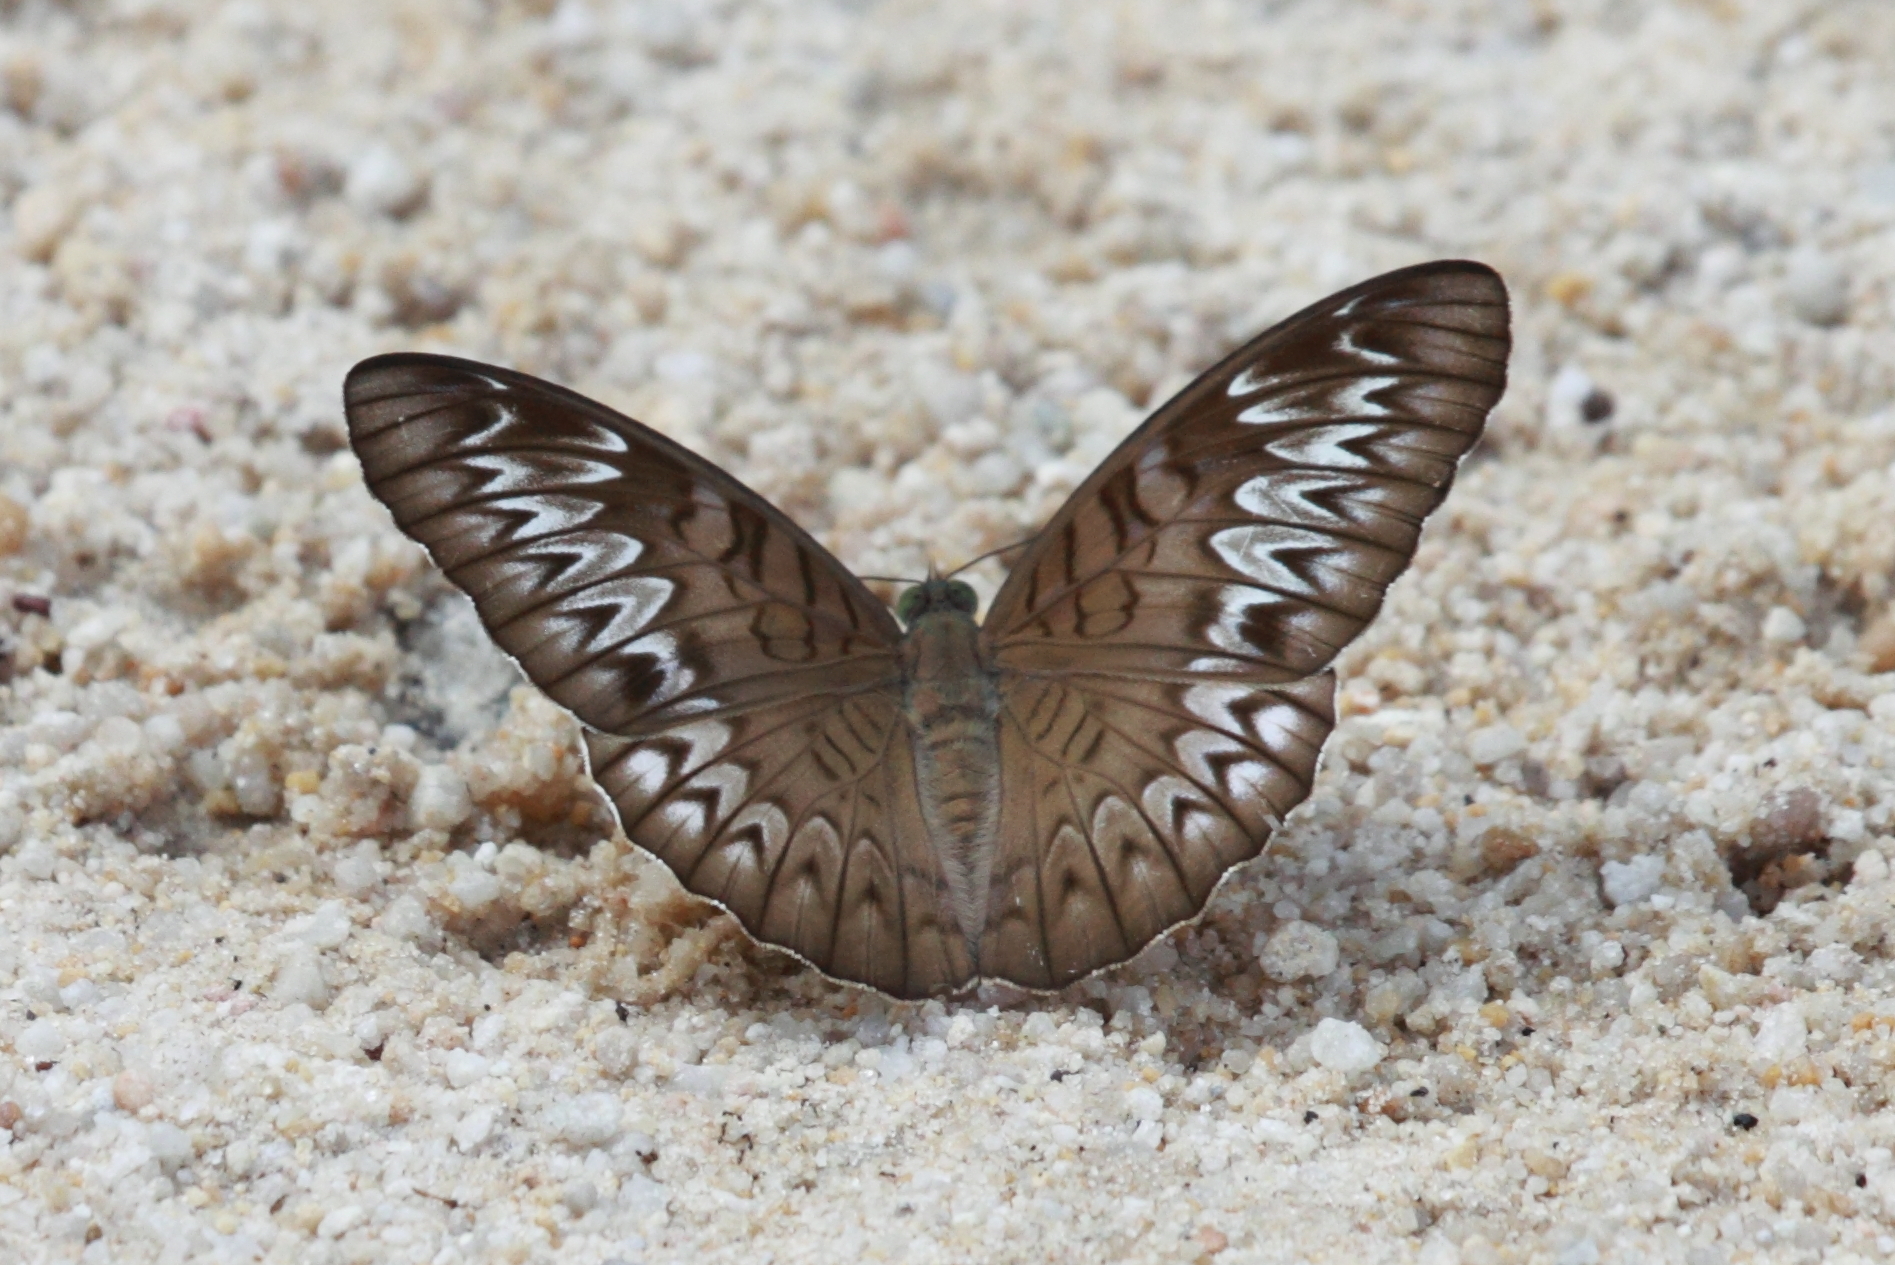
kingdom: Animalia
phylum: Arthropoda
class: Insecta
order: Lepidoptera
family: Nymphalidae
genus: Tanaecia
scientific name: Tanaecia pelea
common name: Malay viscount
